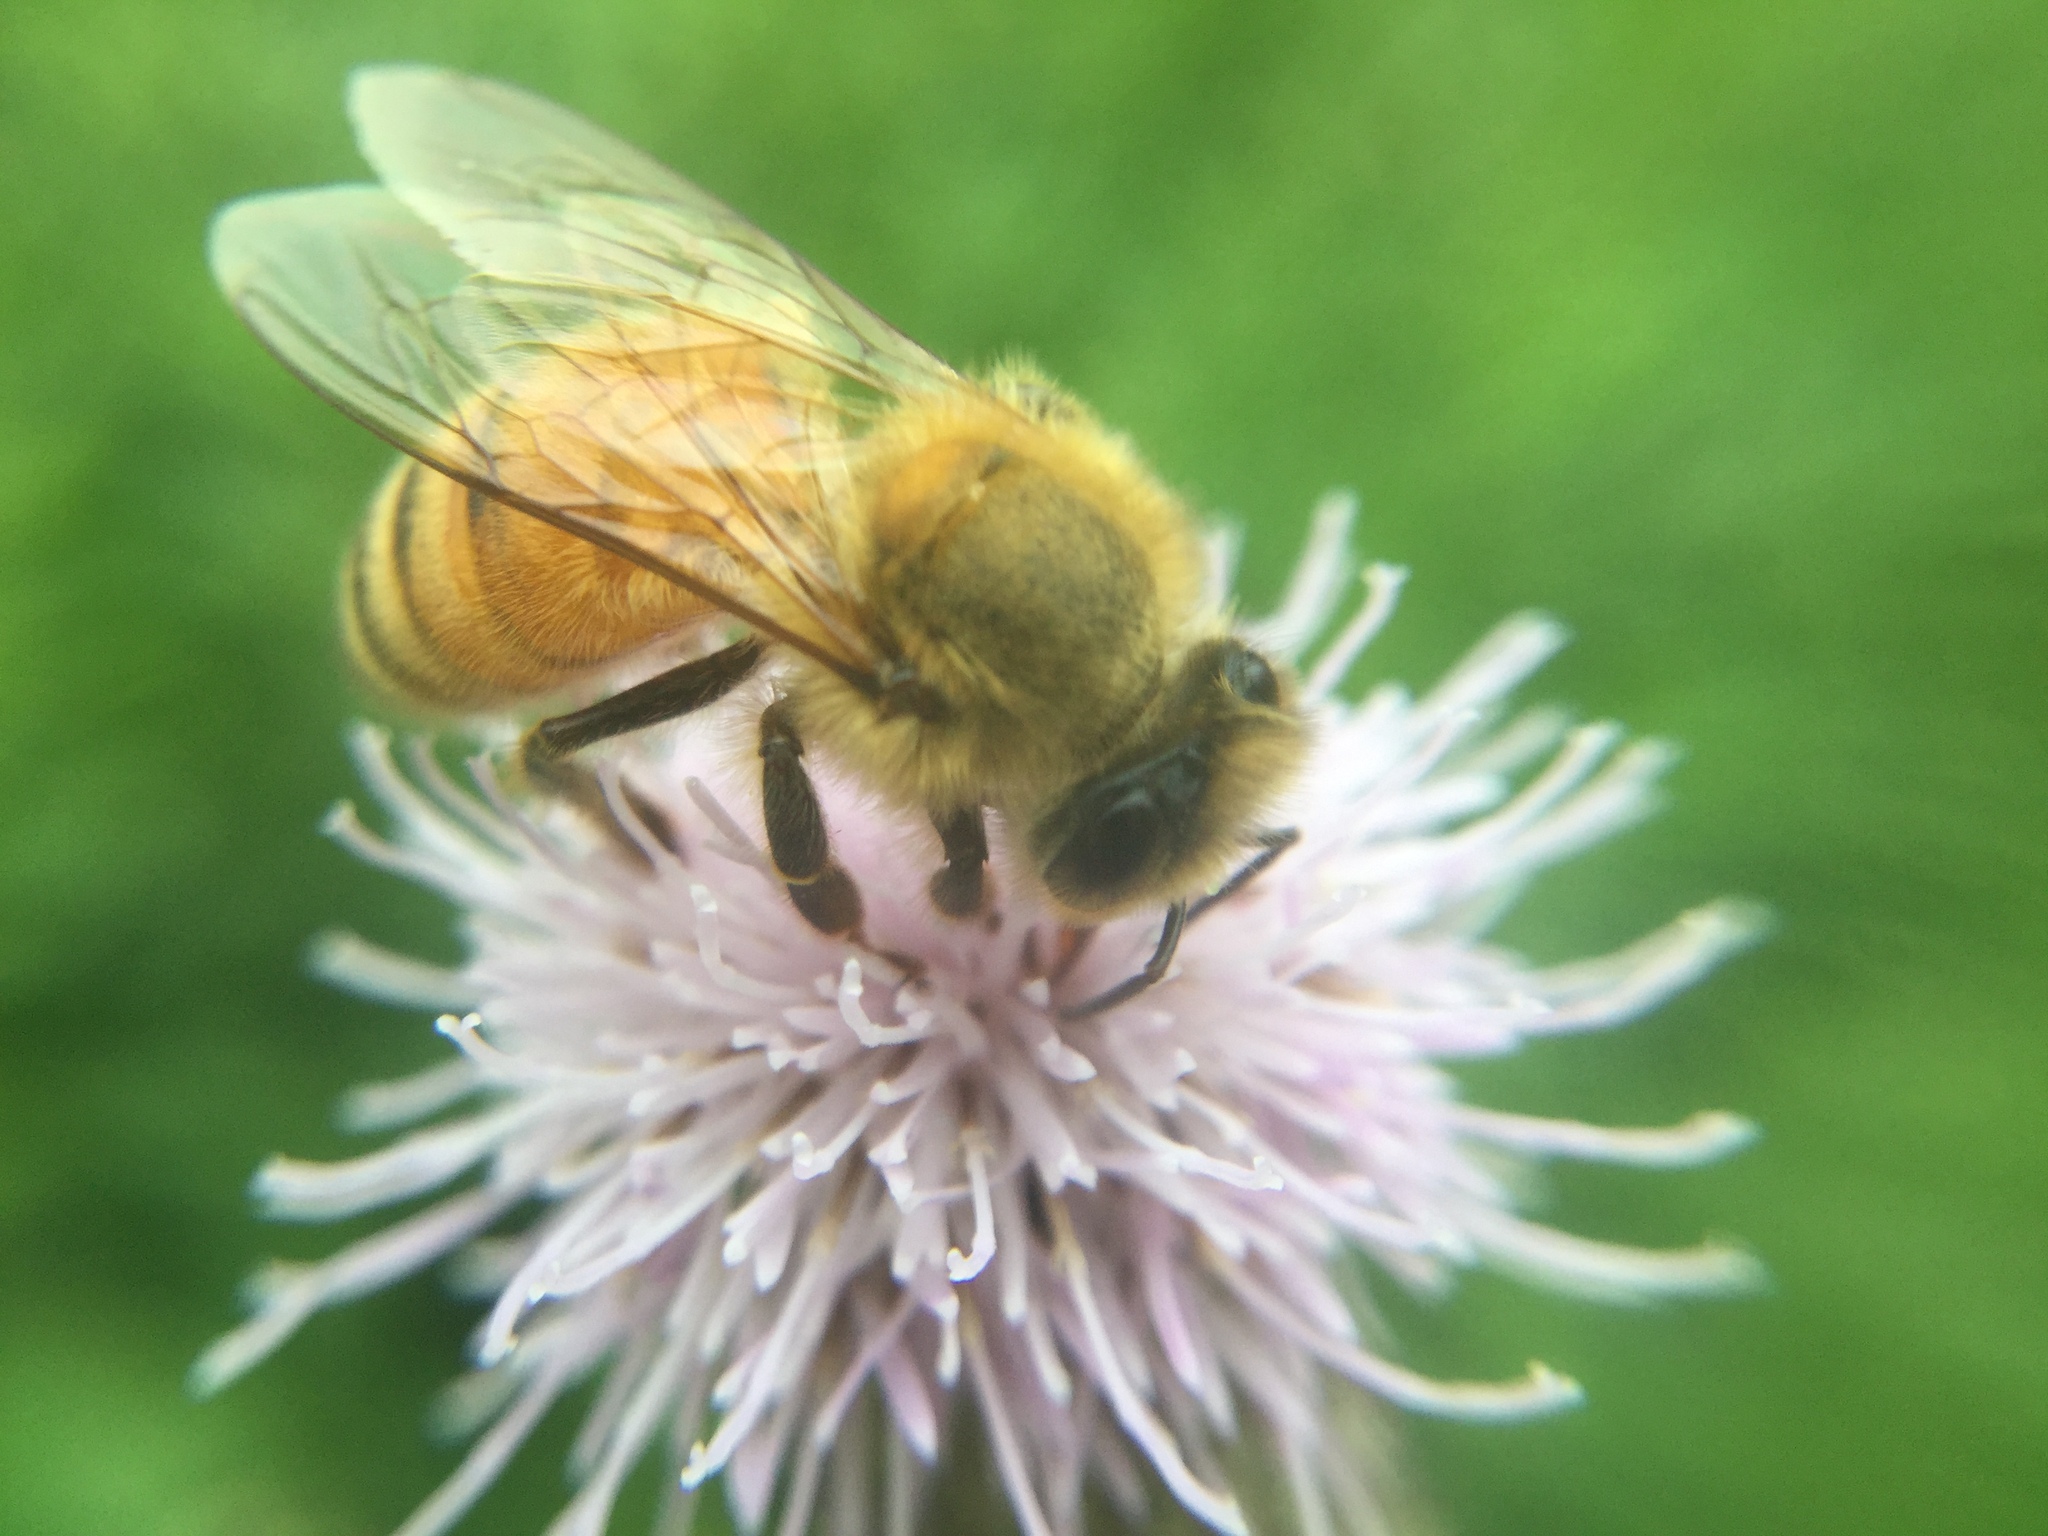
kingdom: Animalia
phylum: Arthropoda
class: Insecta
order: Hymenoptera
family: Apidae
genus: Apis
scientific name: Apis mellifera
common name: Honey bee
